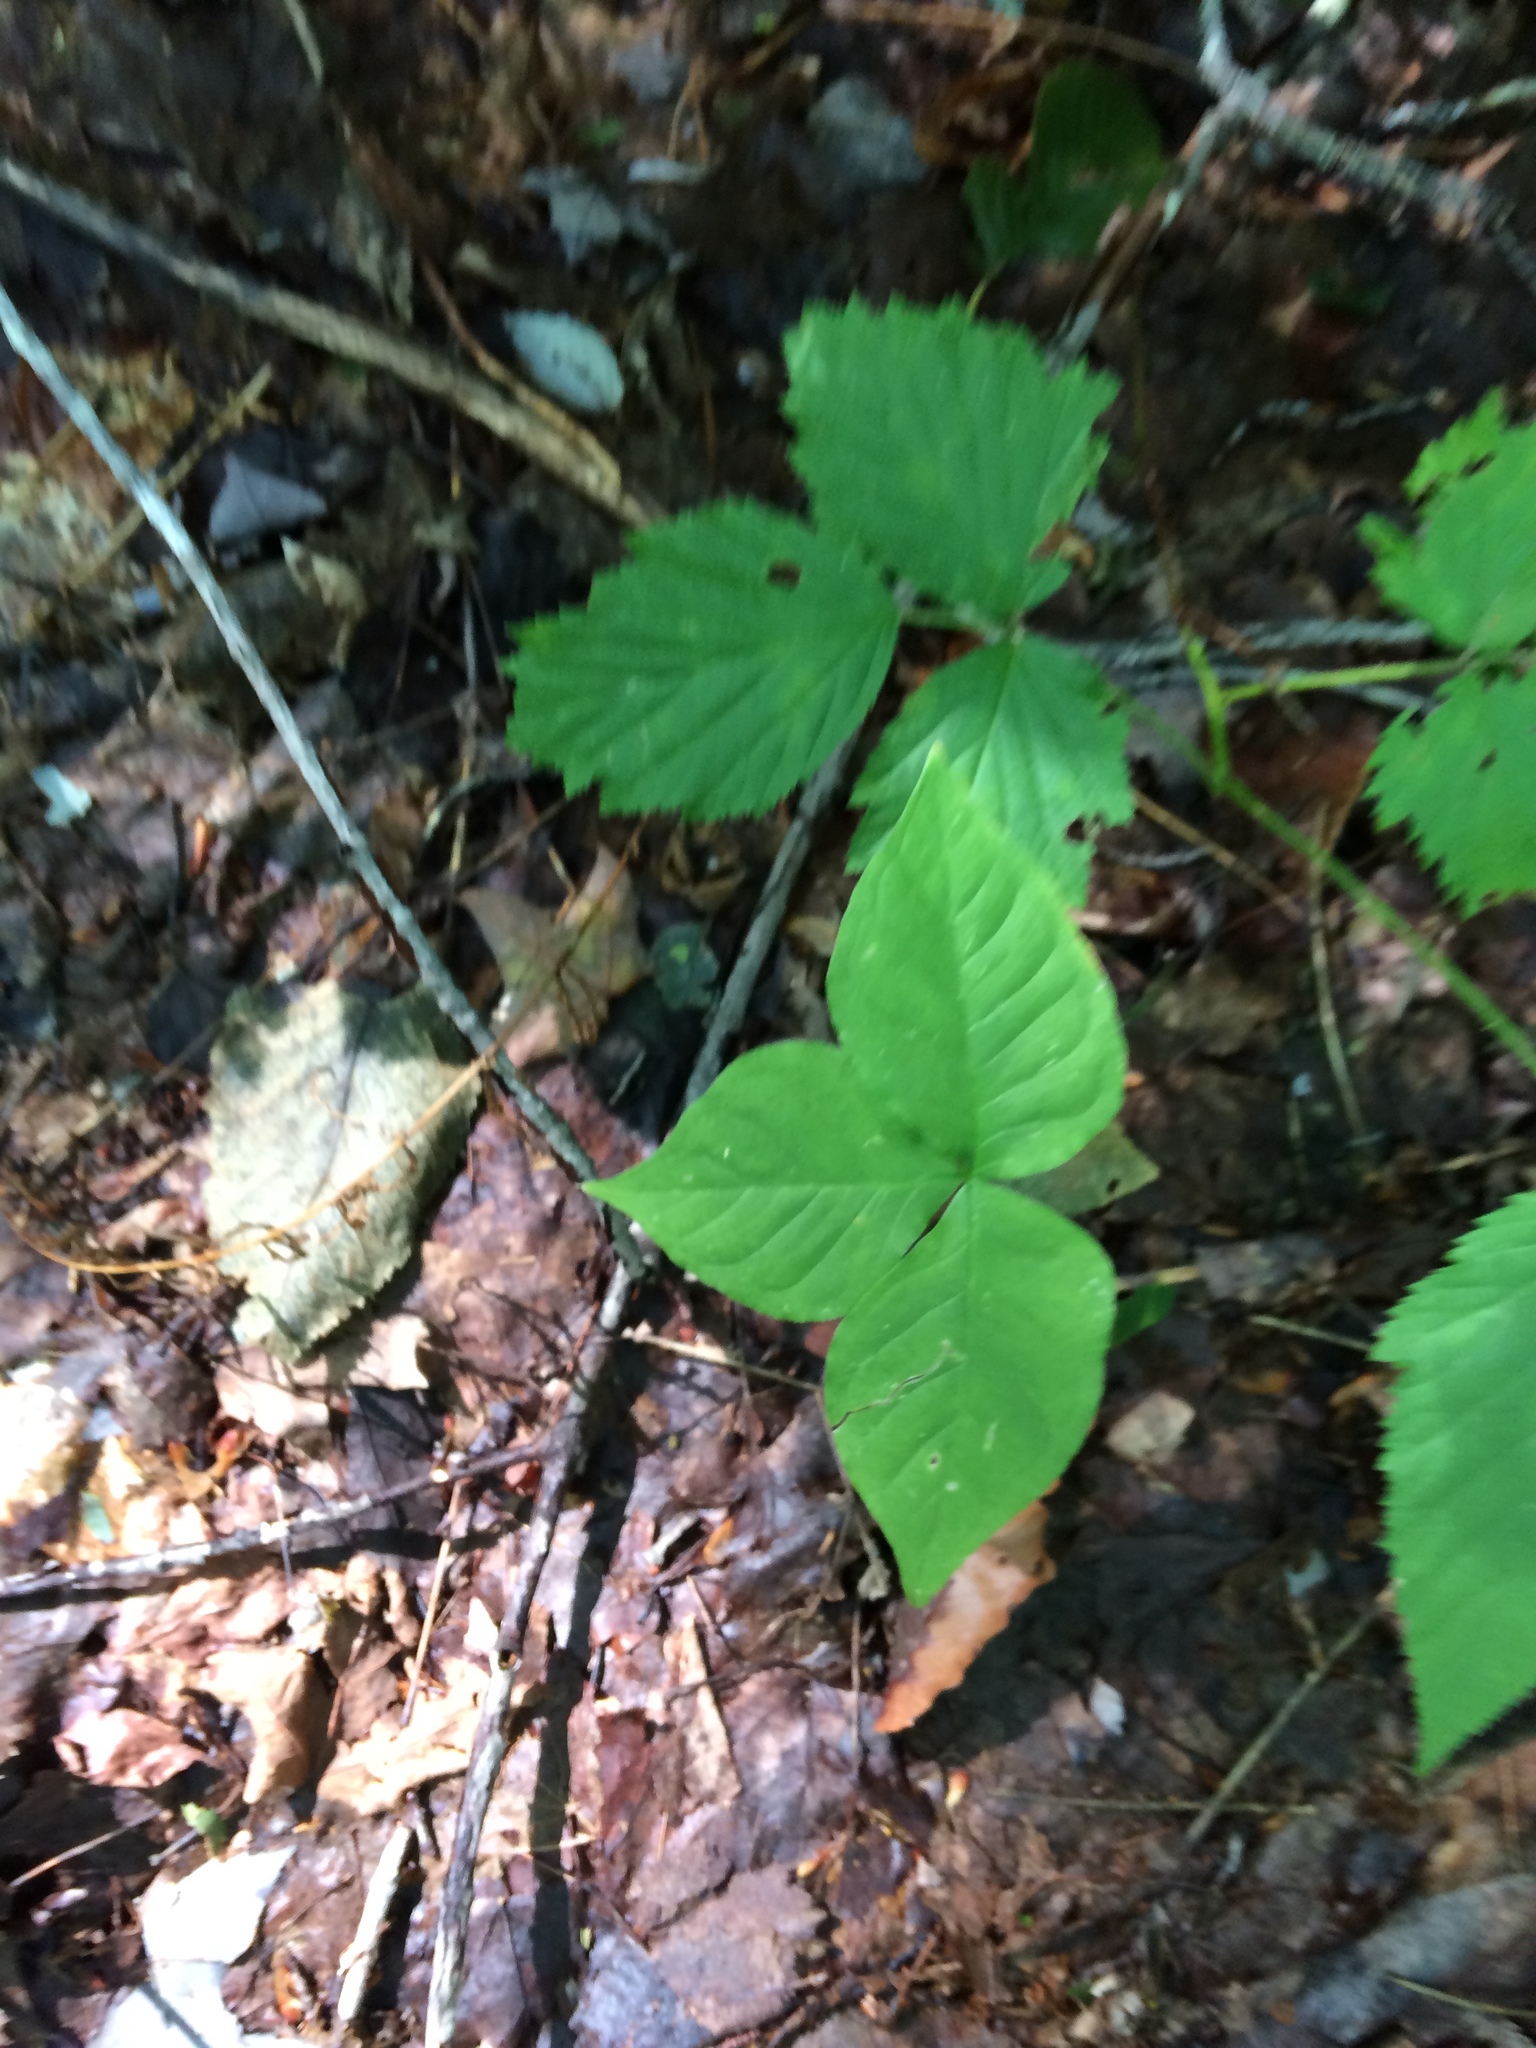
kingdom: Plantae
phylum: Tracheophyta
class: Liliopsida
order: Alismatales
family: Araceae
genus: Arisaema
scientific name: Arisaema triphyllum
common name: Jack-in-the-pulpit
